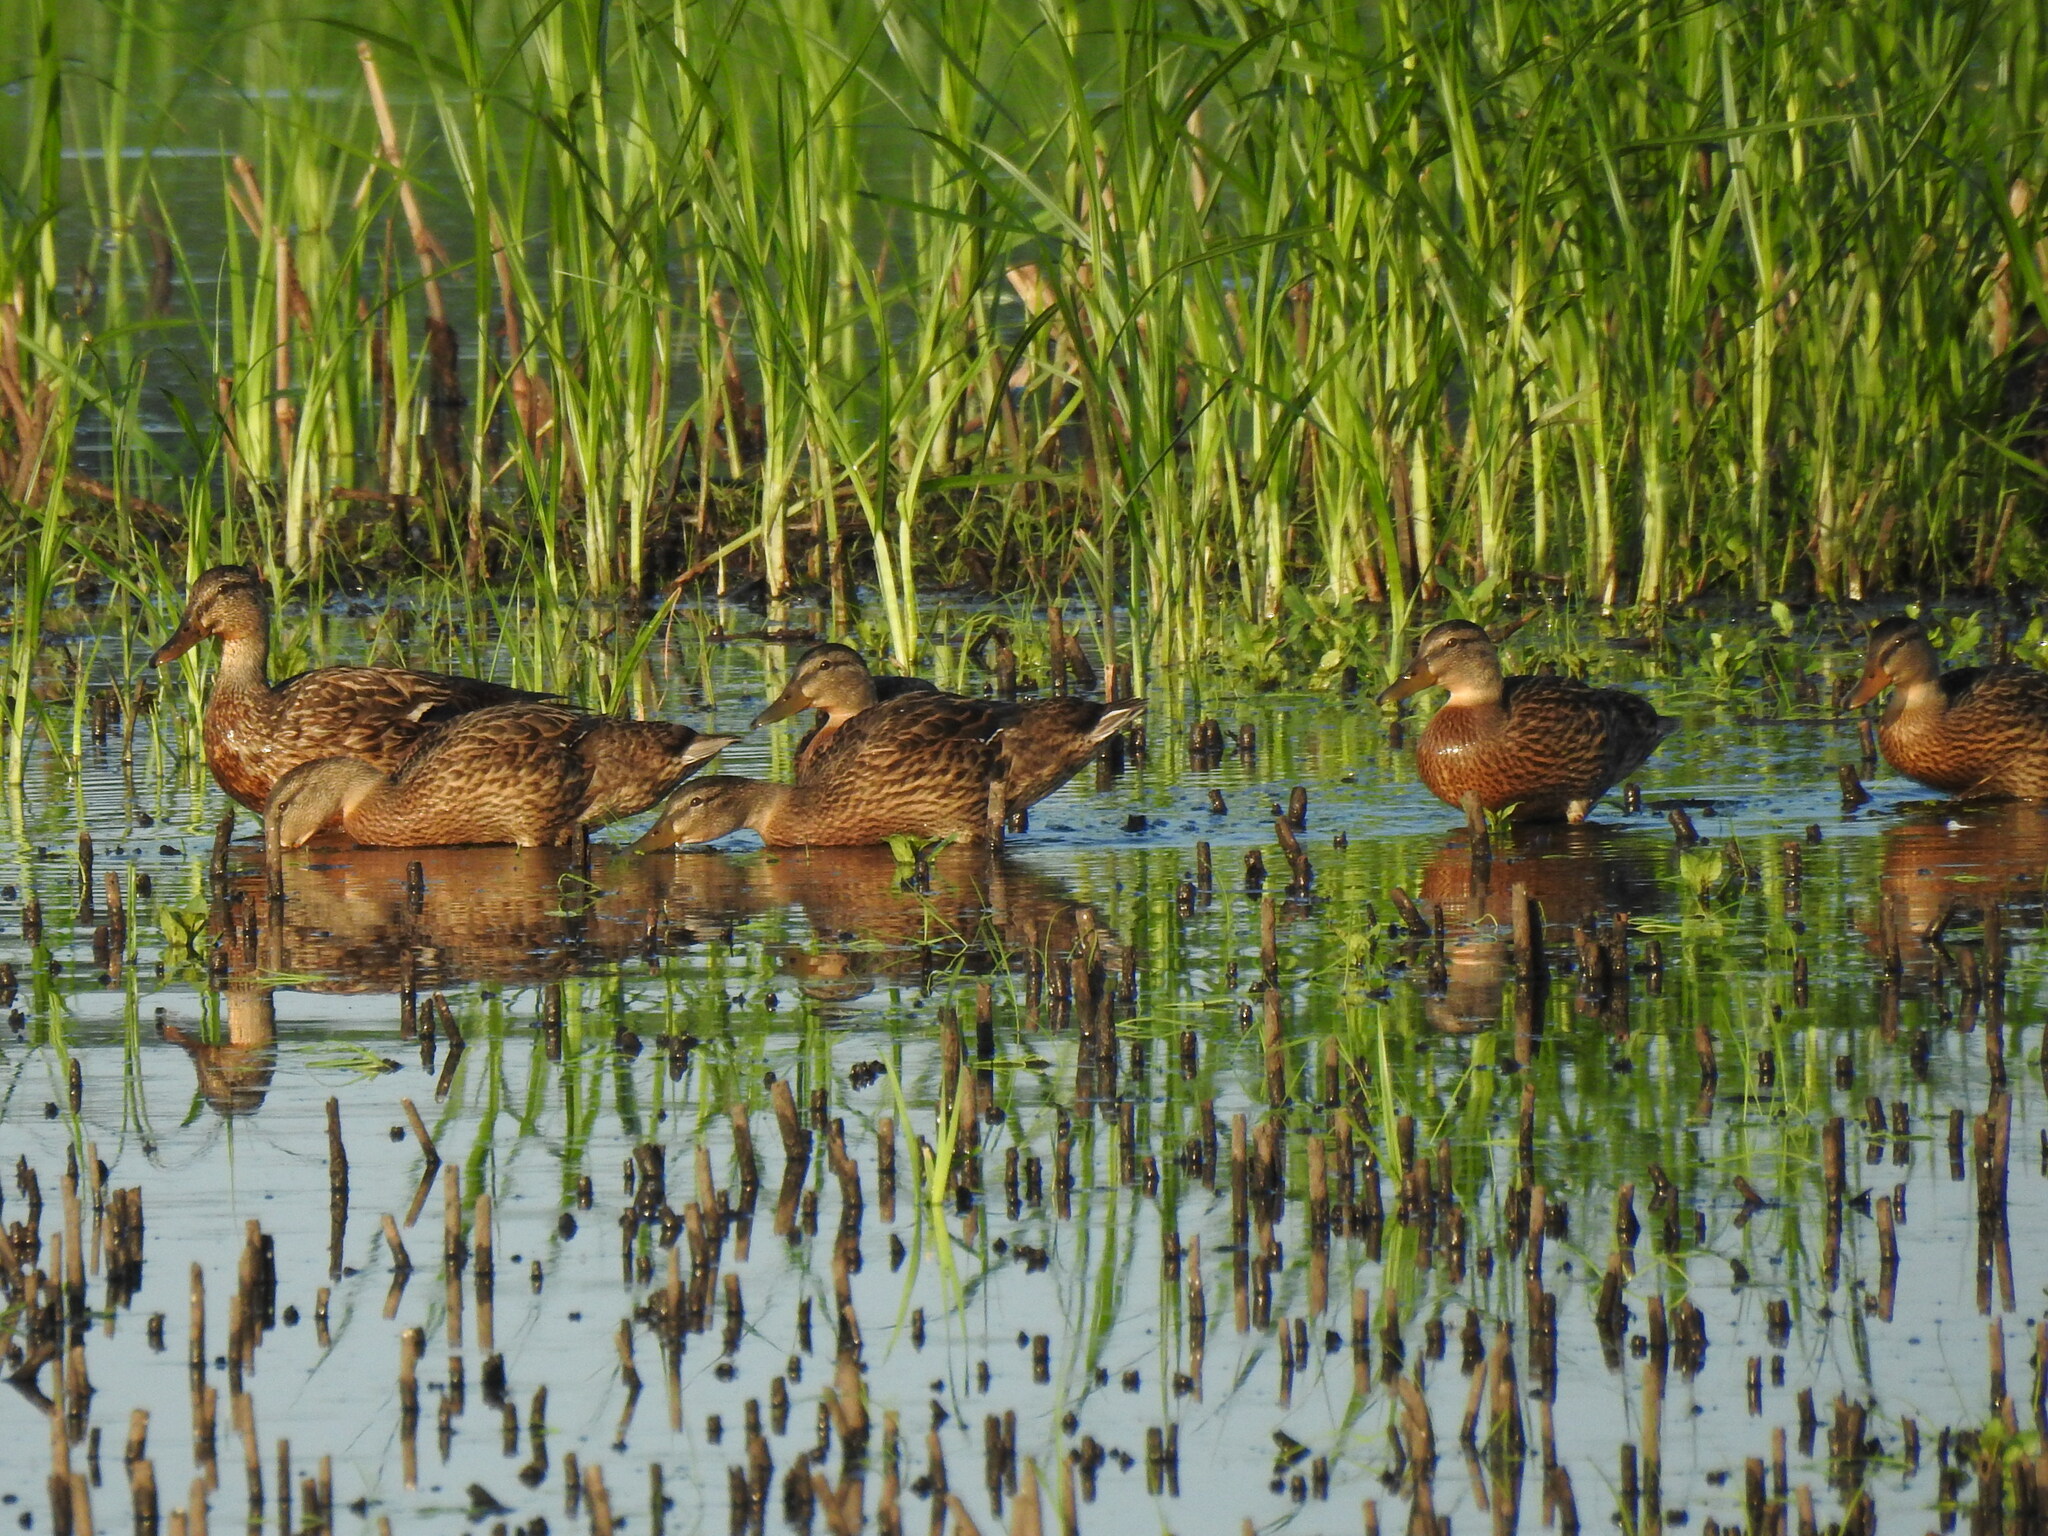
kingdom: Animalia
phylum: Chordata
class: Aves
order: Anseriformes
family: Anatidae
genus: Anas
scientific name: Anas platyrhynchos
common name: Mallard
